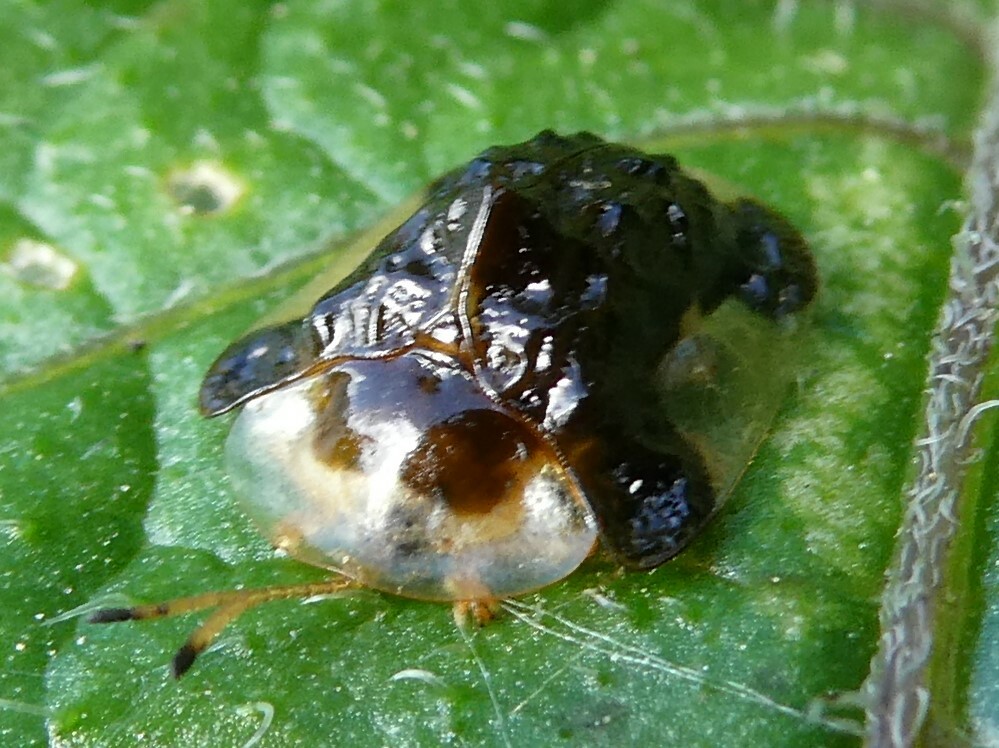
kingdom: Animalia
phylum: Arthropoda
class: Insecta
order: Coleoptera
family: Chrysomelidae
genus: Helocassis
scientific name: Helocassis clavata
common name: Clavate tortoise beetle
